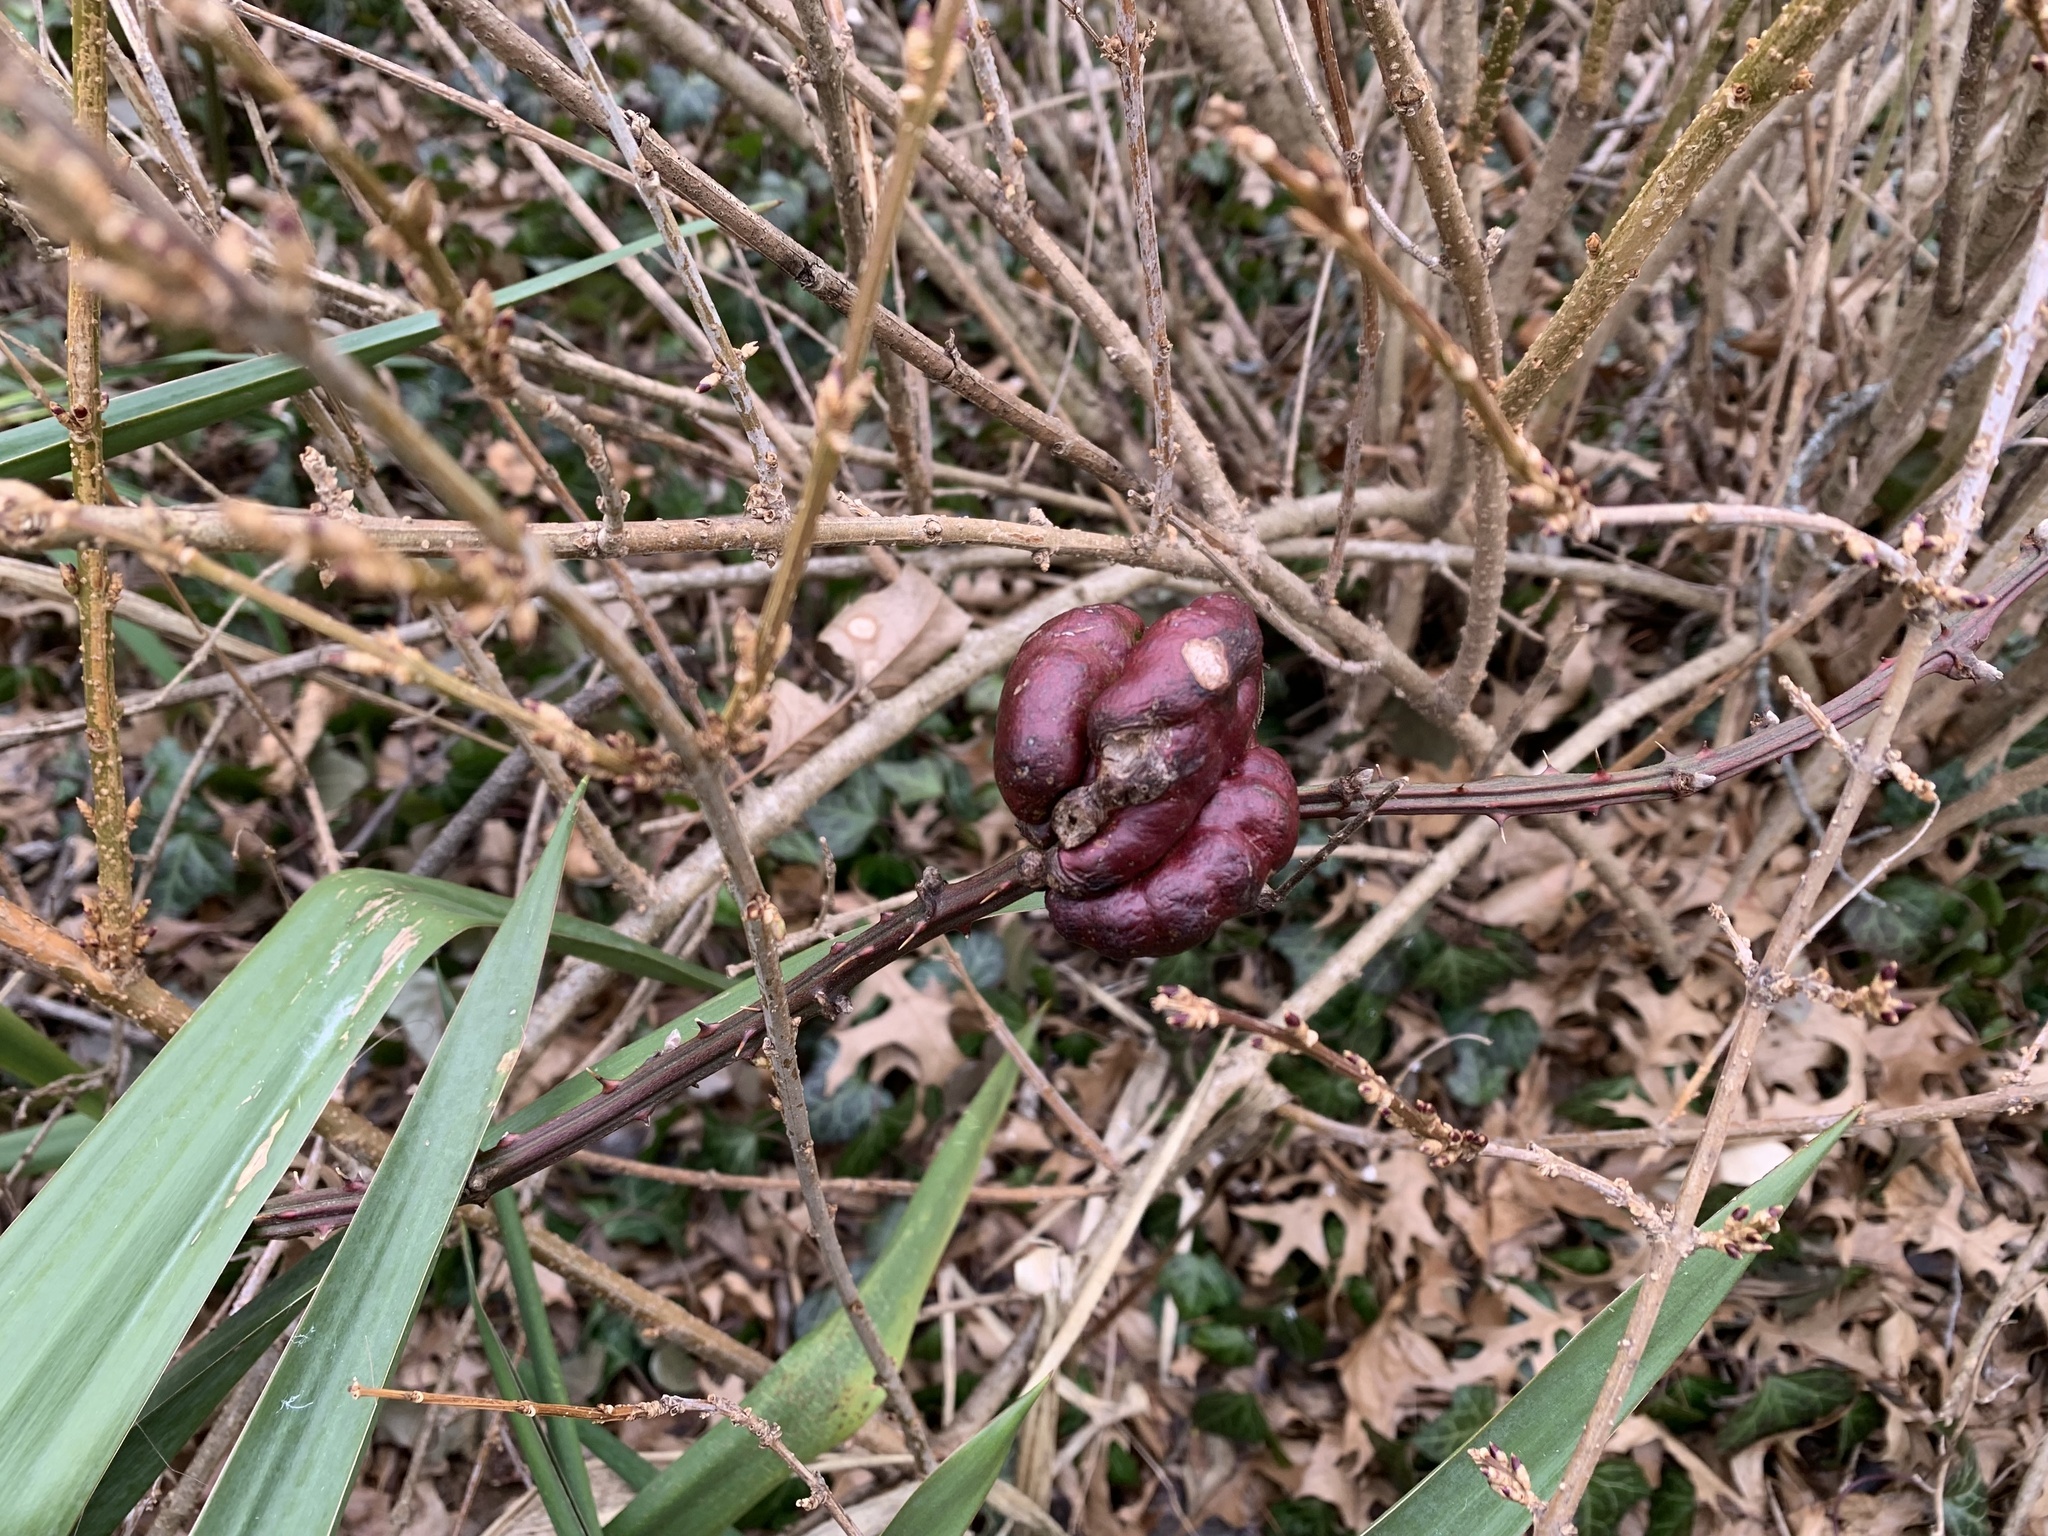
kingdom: Animalia
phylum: Arthropoda
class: Insecta
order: Hymenoptera
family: Cynipidae
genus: Diastrophus
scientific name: Diastrophus
